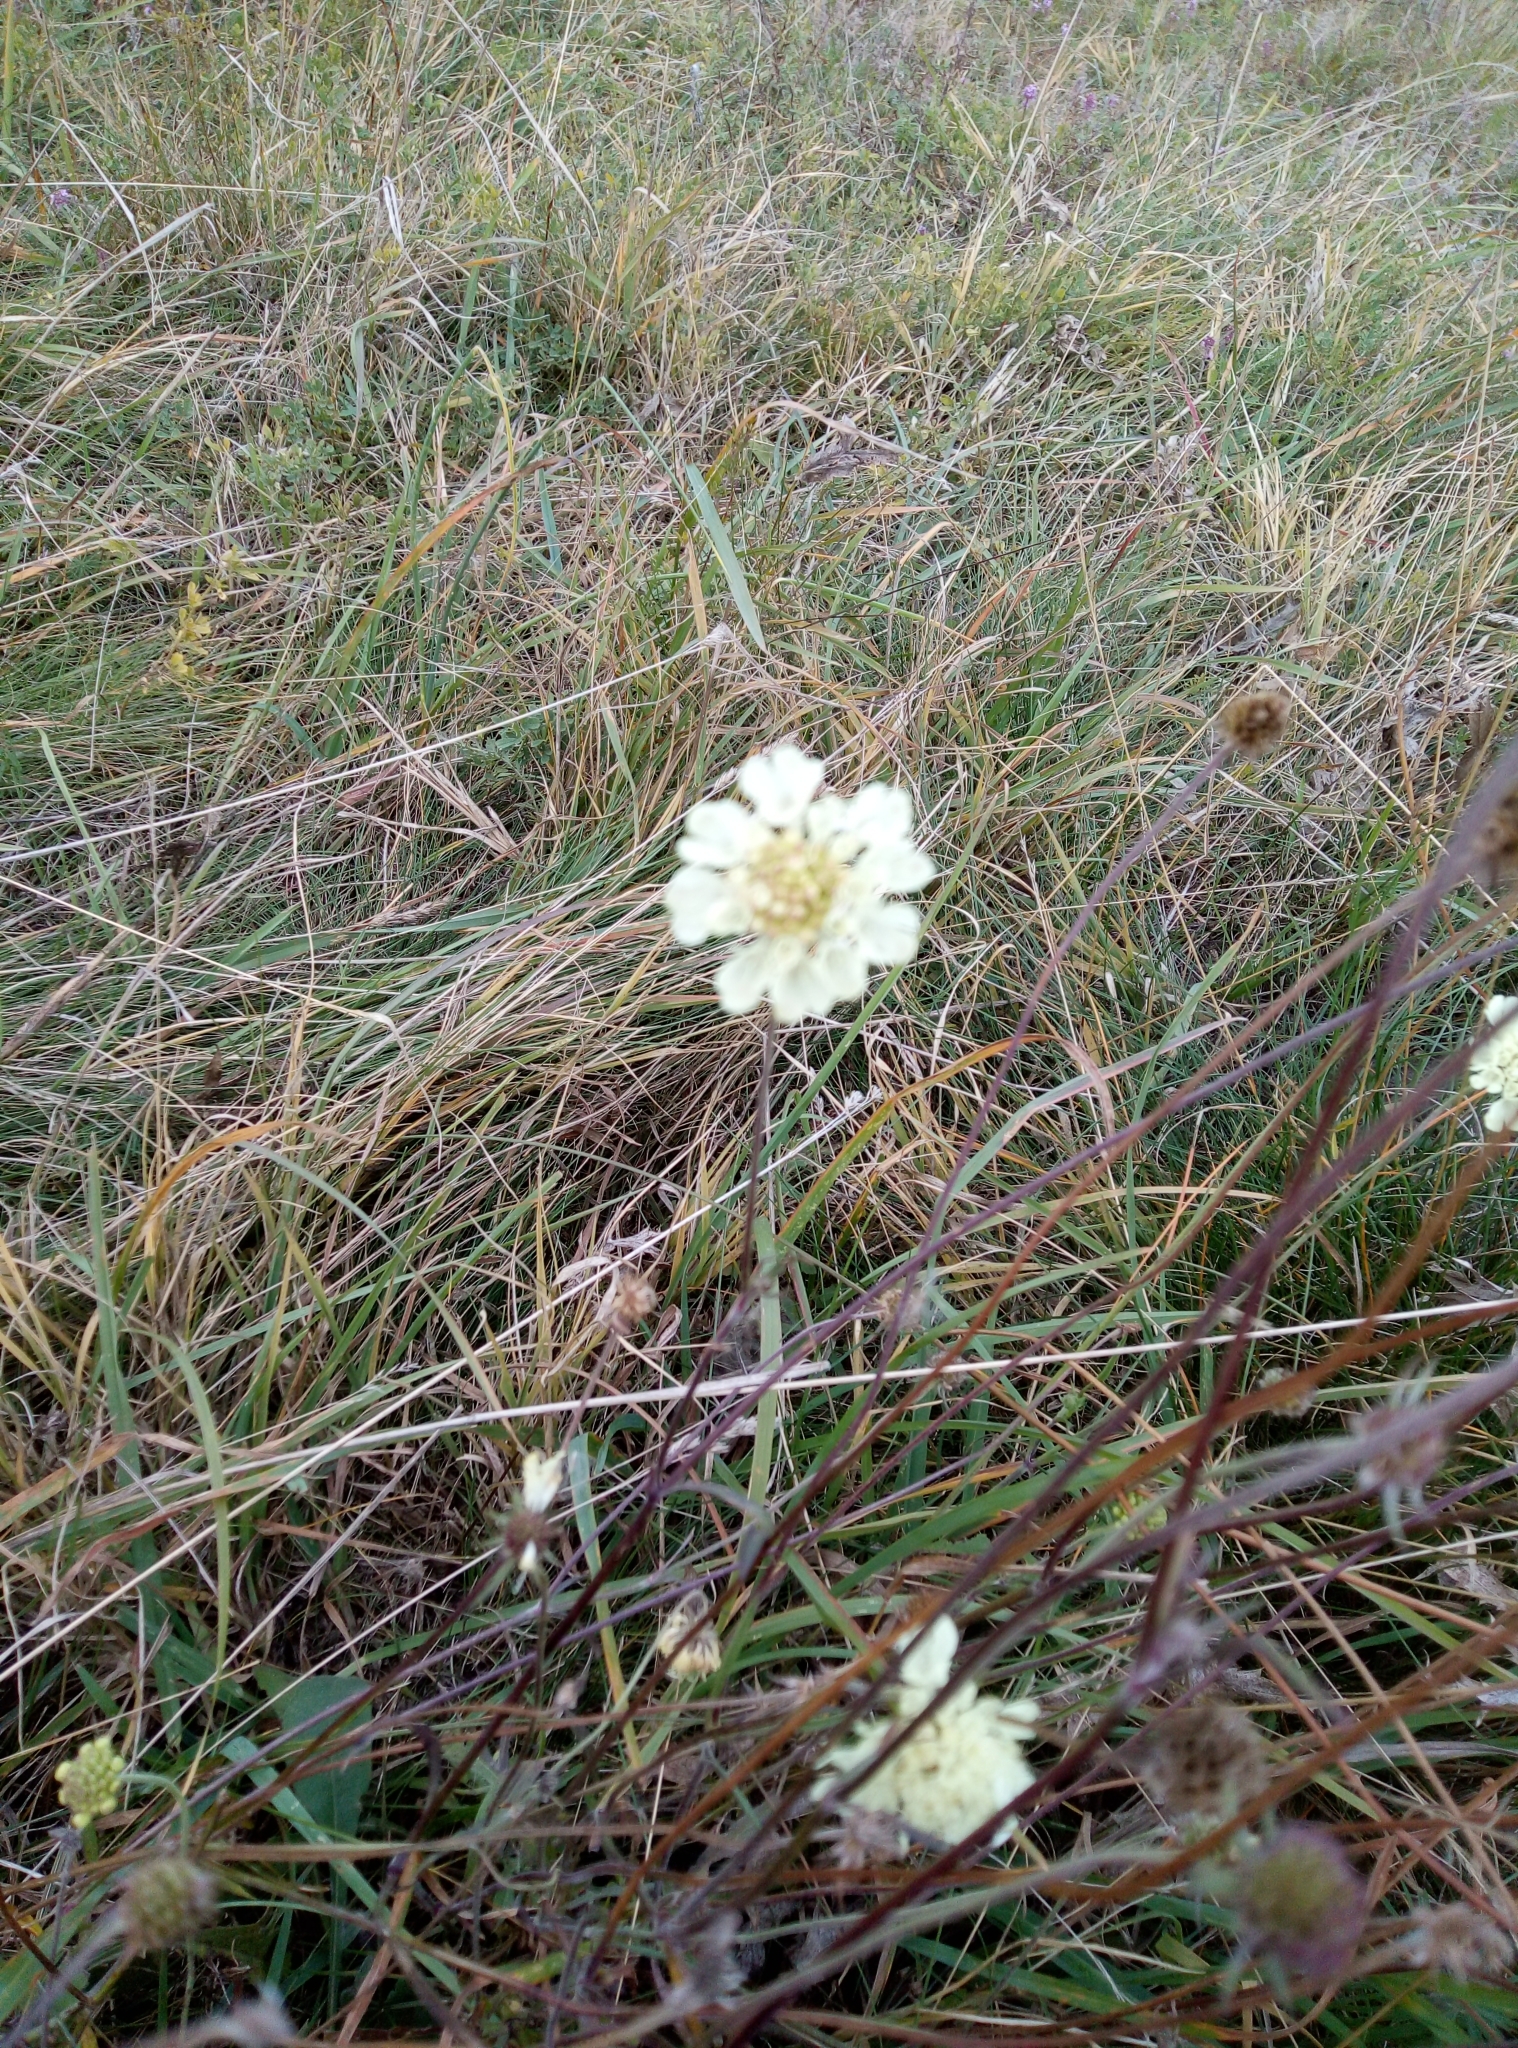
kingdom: Plantae
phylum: Tracheophyta
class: Magnoliopsida
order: Dipsacales
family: Caprifoliaceae
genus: Scabiosa
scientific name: Scabiosa ochroleuca
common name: Cream pincushions
